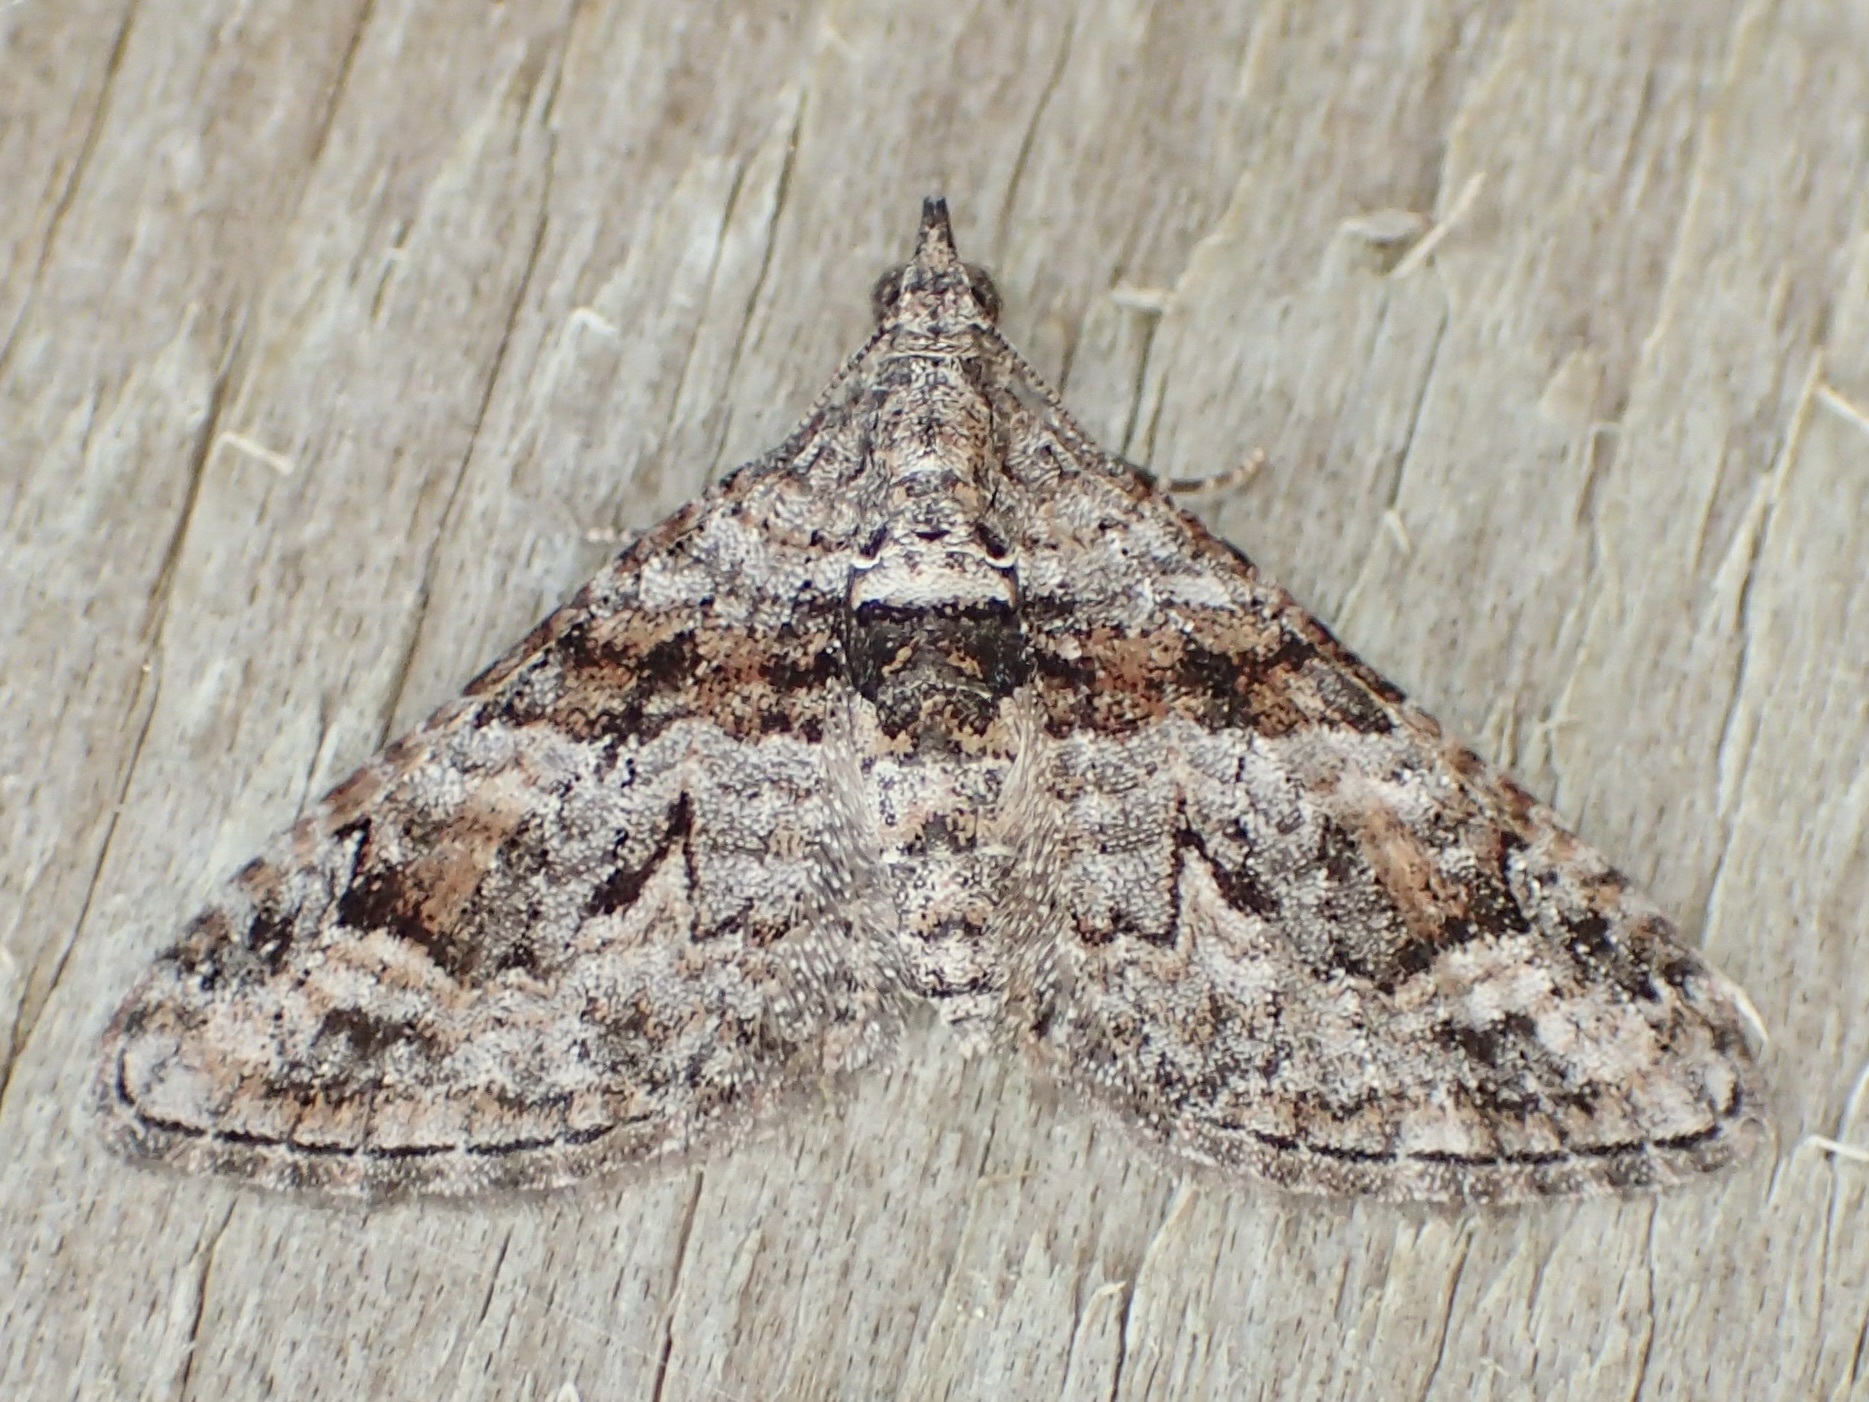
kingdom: Animalia
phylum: Arthropoda
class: Insecta
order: Lepidoptera
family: Geometridae
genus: Phrissogonus
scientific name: Phrissogonus laticostata
